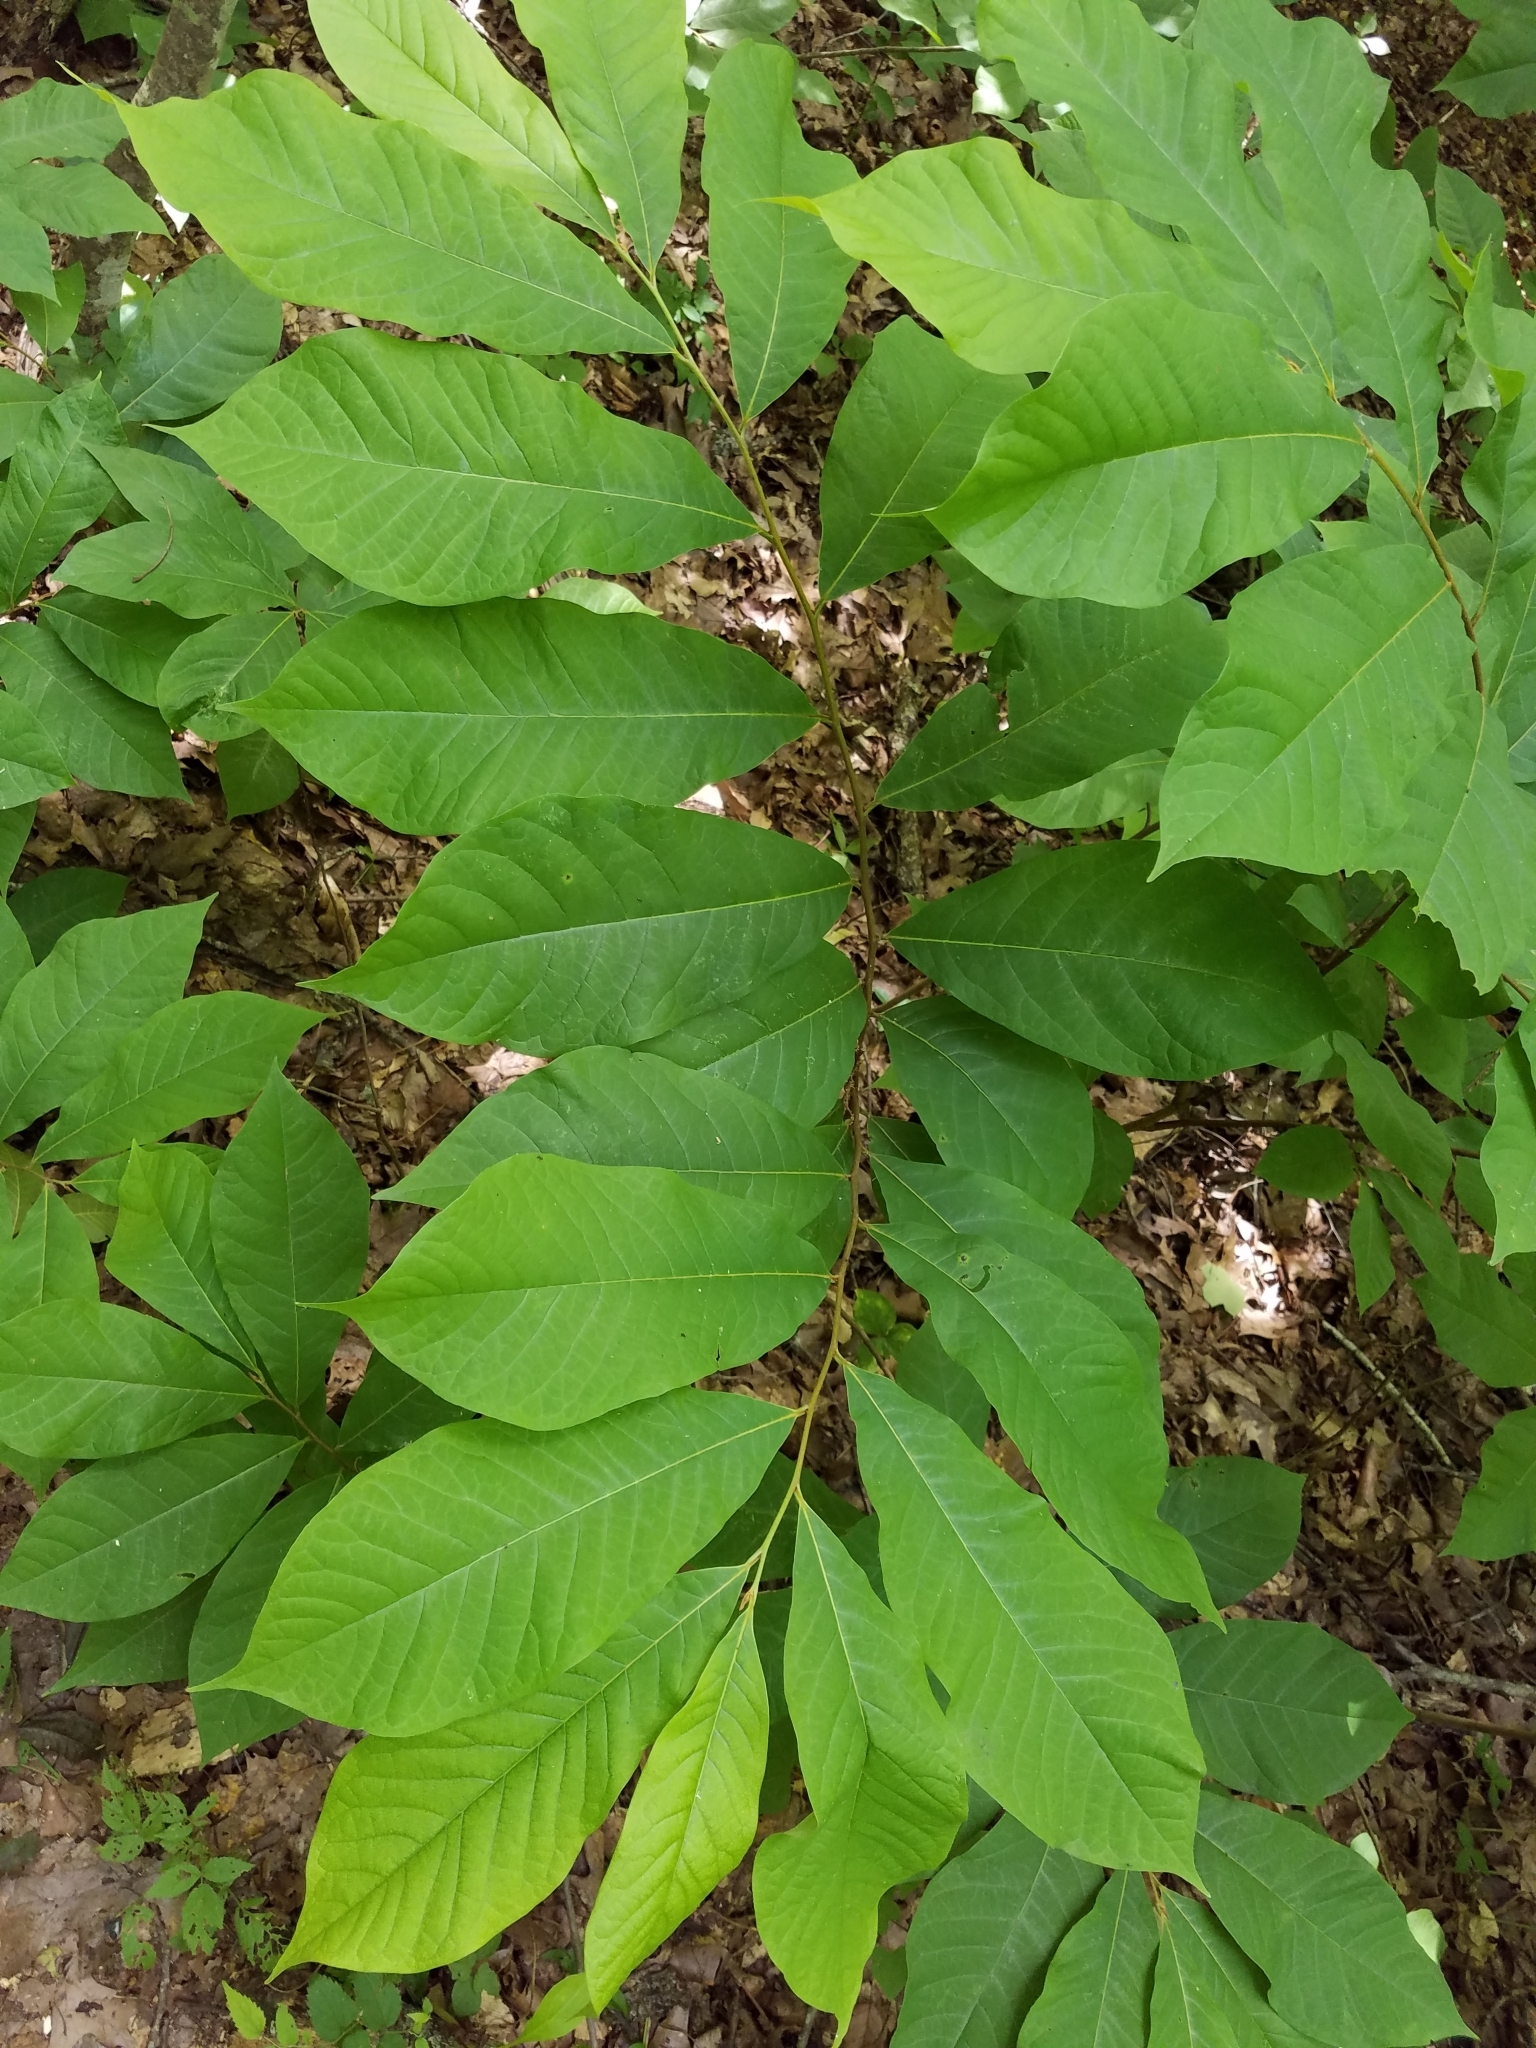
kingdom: Plantae
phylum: Tracheophyta
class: Magnoliopsida
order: Magnoliales
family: Annonaceae
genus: Asimina
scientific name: Asimina triloba
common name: Dog-banana
